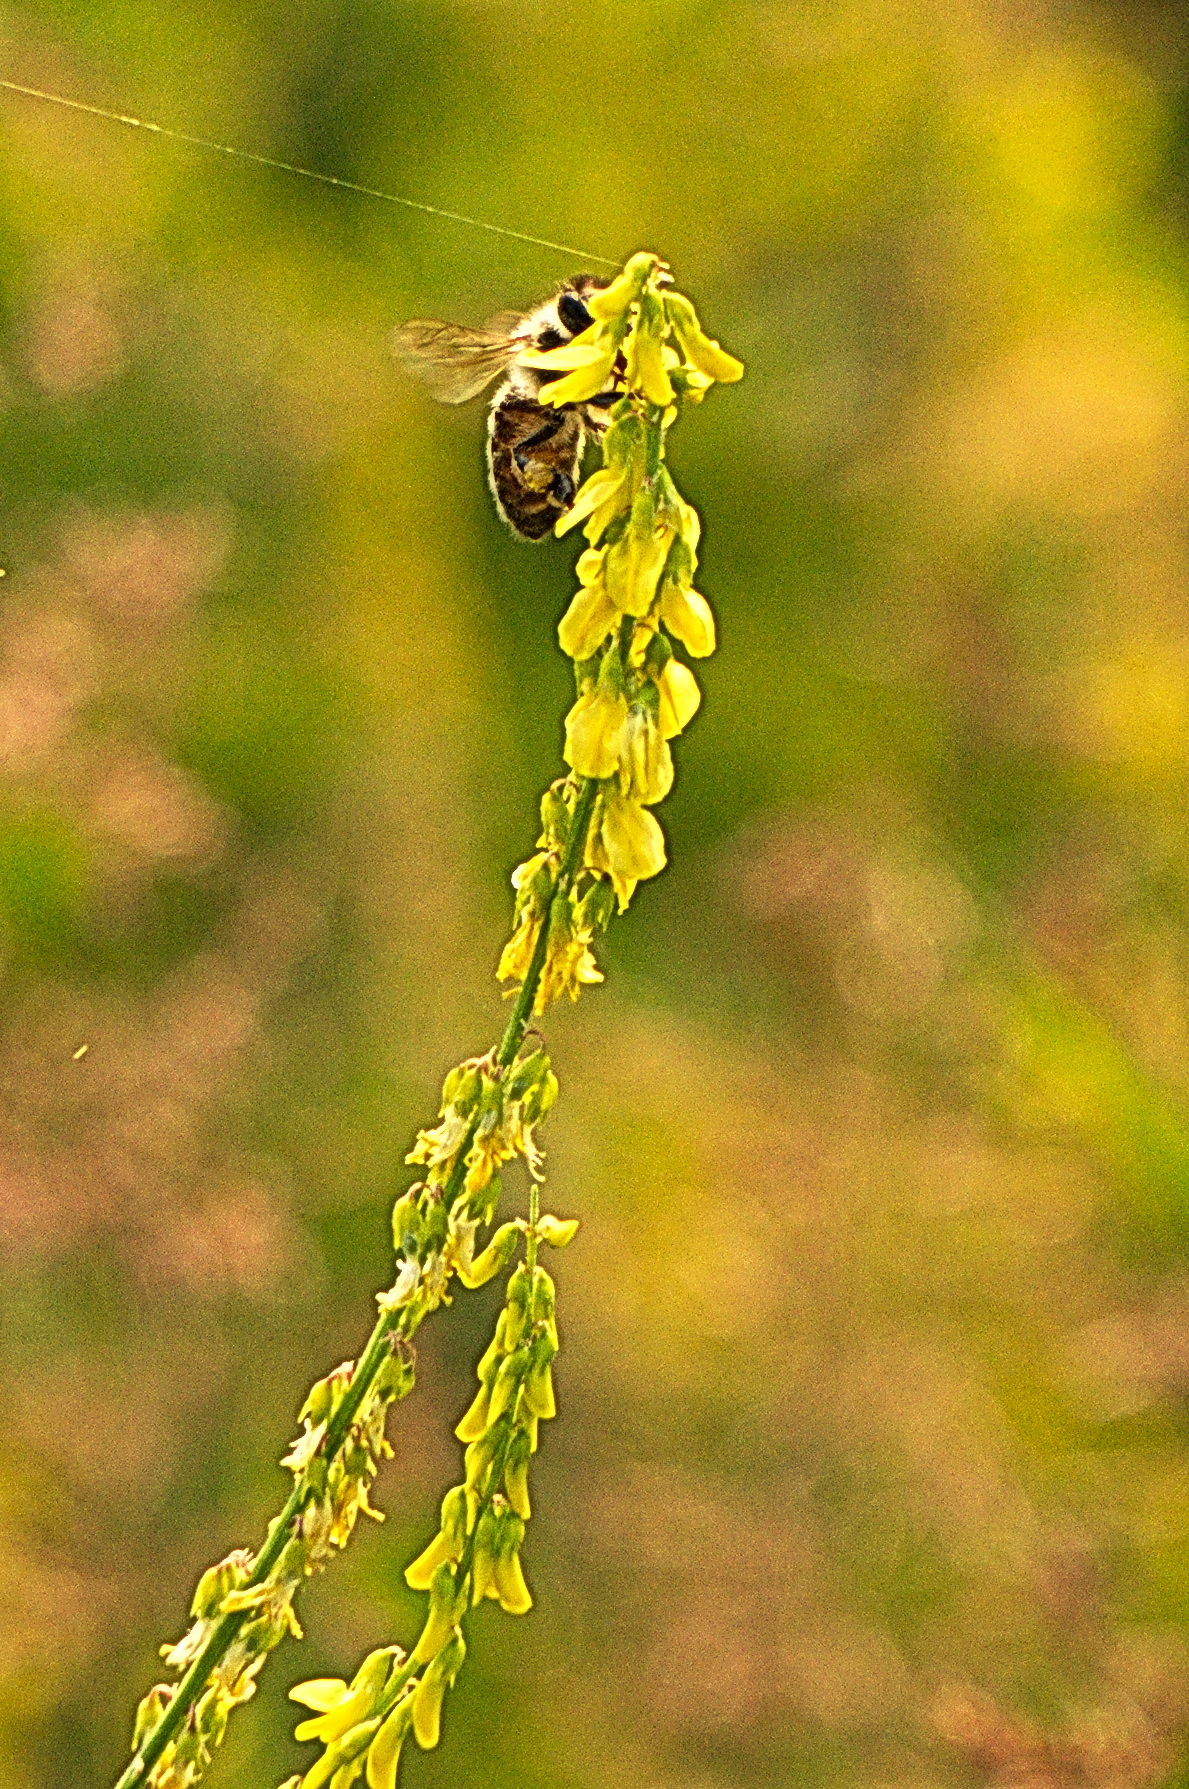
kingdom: Animalia
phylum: Arthropoda
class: Insecta
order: Hymenoptera
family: Apidae
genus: Apis
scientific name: Apis mellifera
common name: Honey bee
